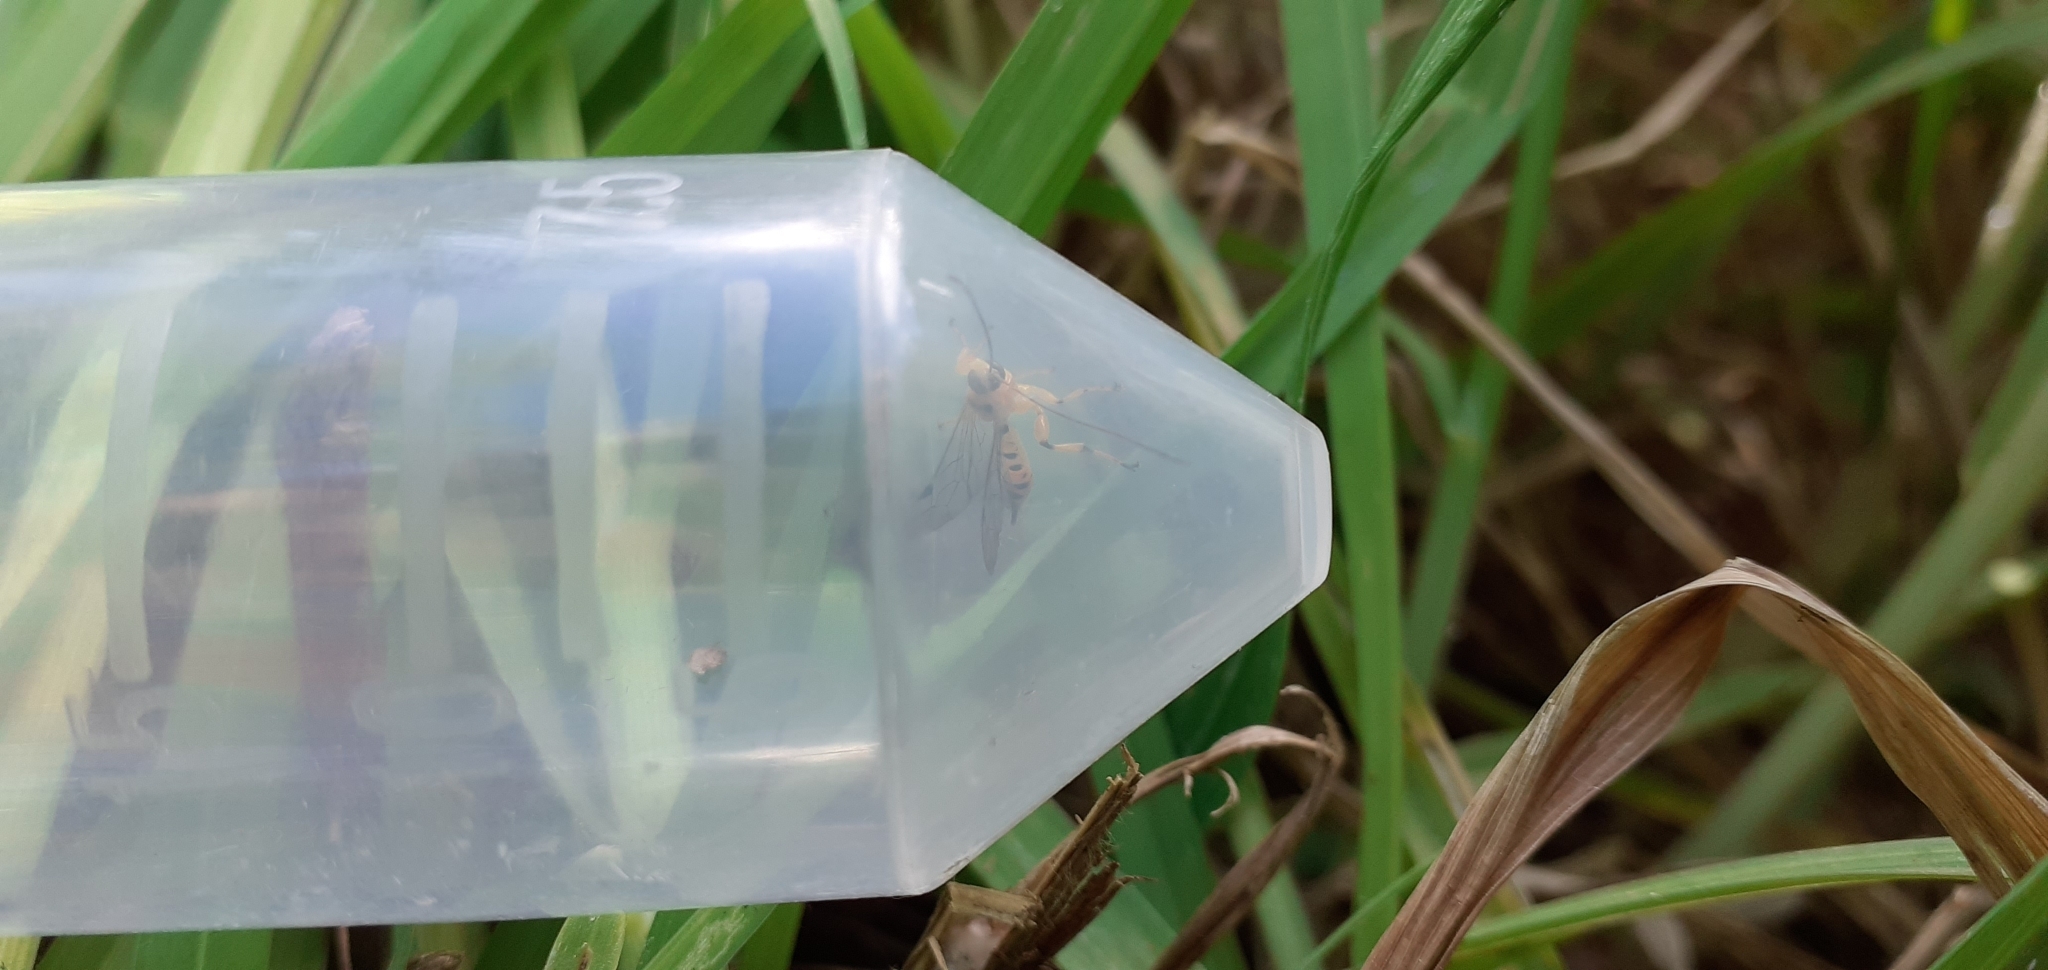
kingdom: Animalia
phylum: Arthropoda
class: Insecta
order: Hymenoptera
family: Ichneumonidae
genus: Xanthopimpla
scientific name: Xanthopimpla rhopaloceros
